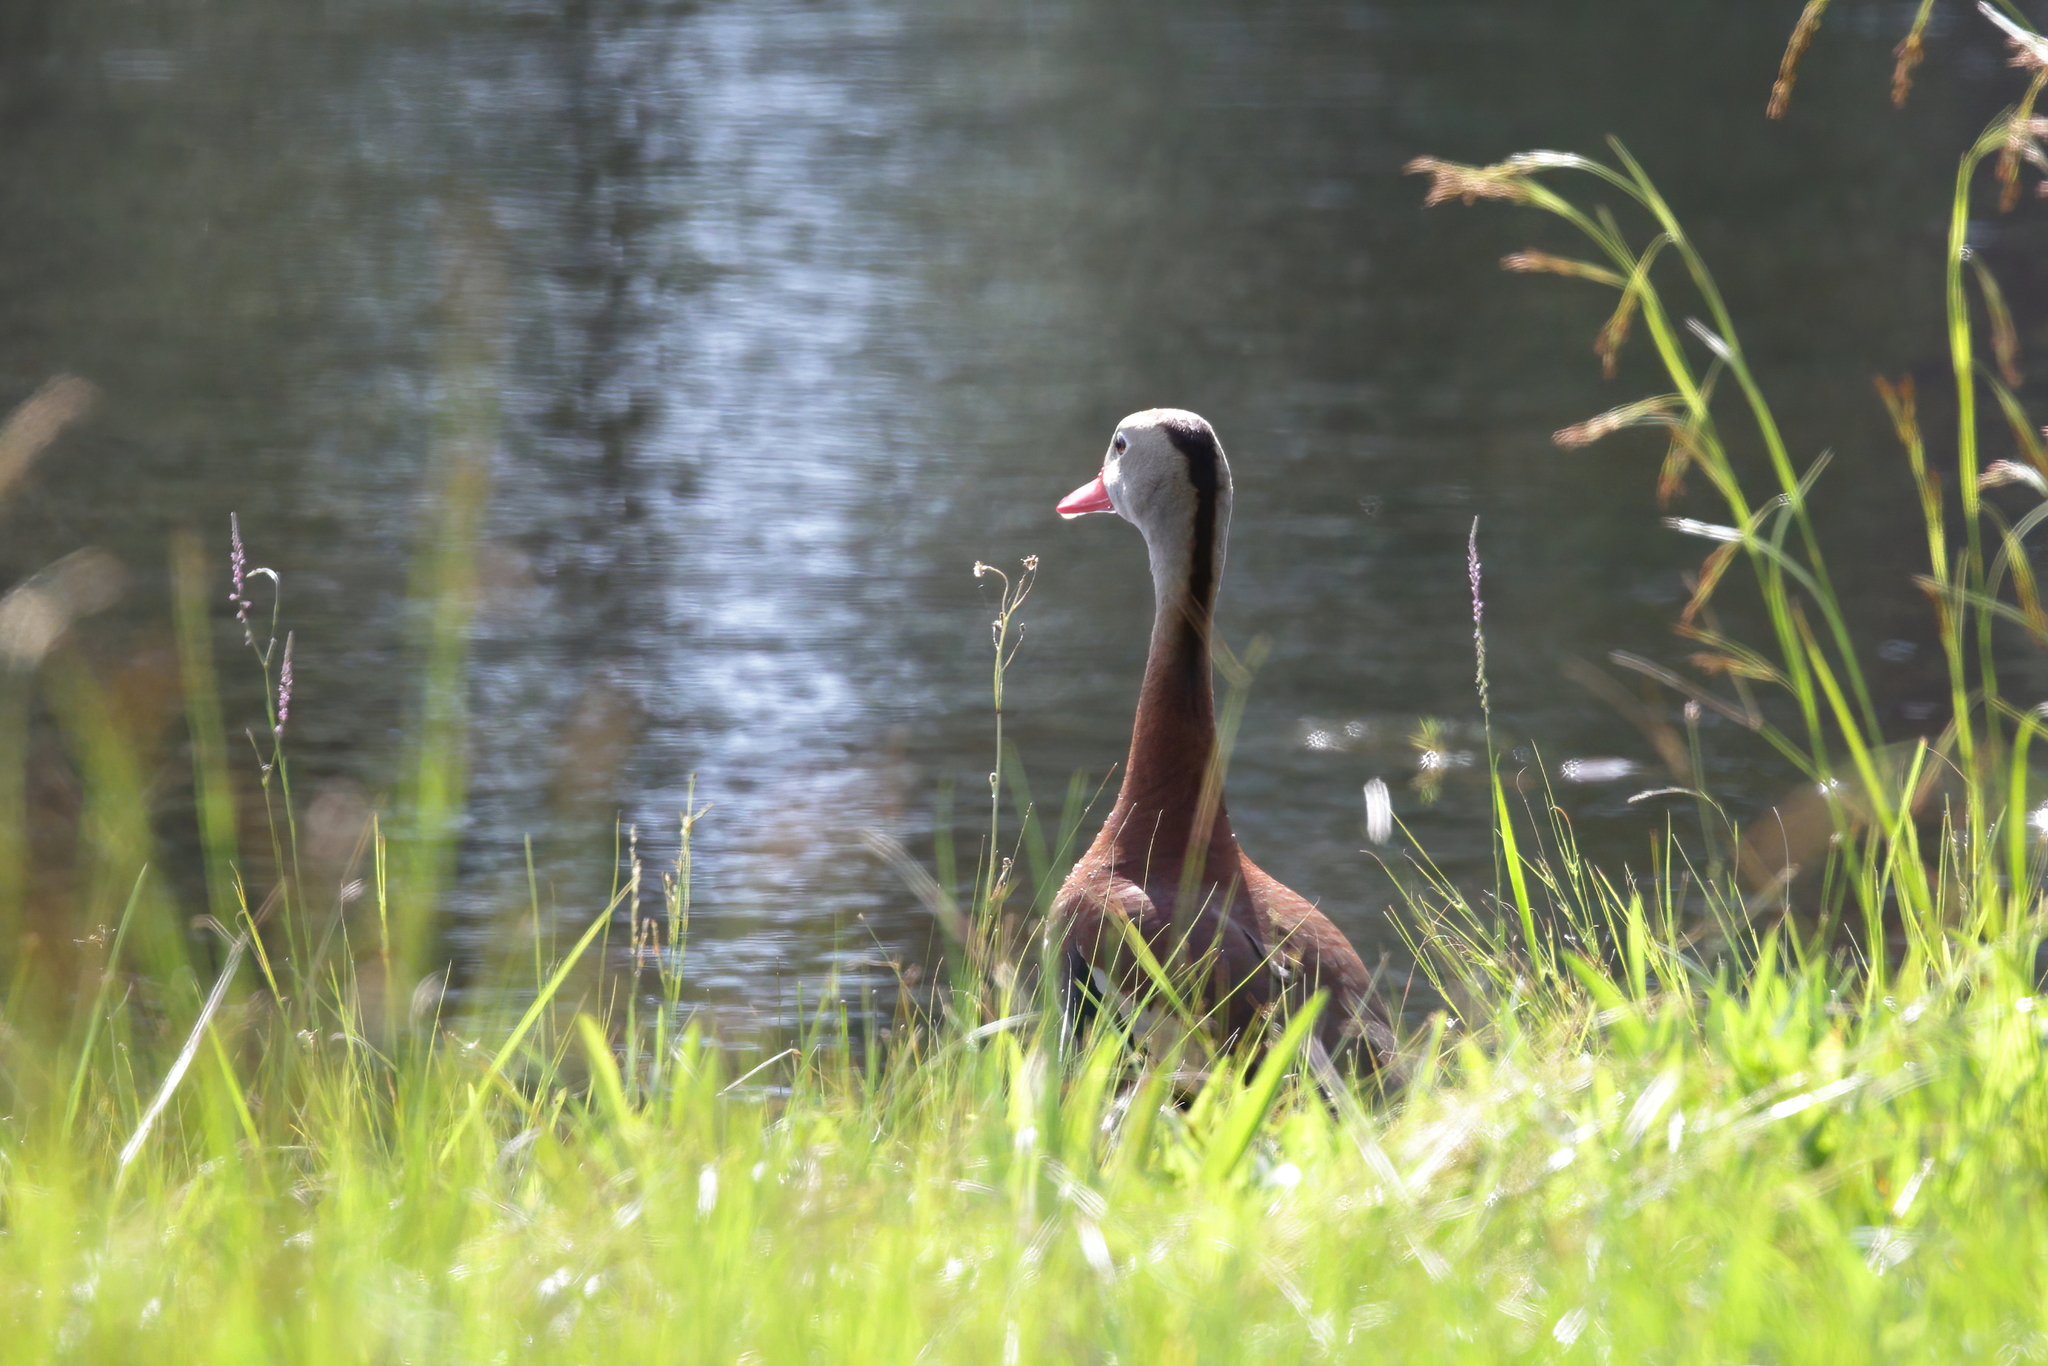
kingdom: Animalia
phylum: Chordata
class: Aves
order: Anseriformes
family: Anatidae
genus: Dendrocygna
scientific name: Dendrocygna autumnalis
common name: Black-bellied whistling duck
